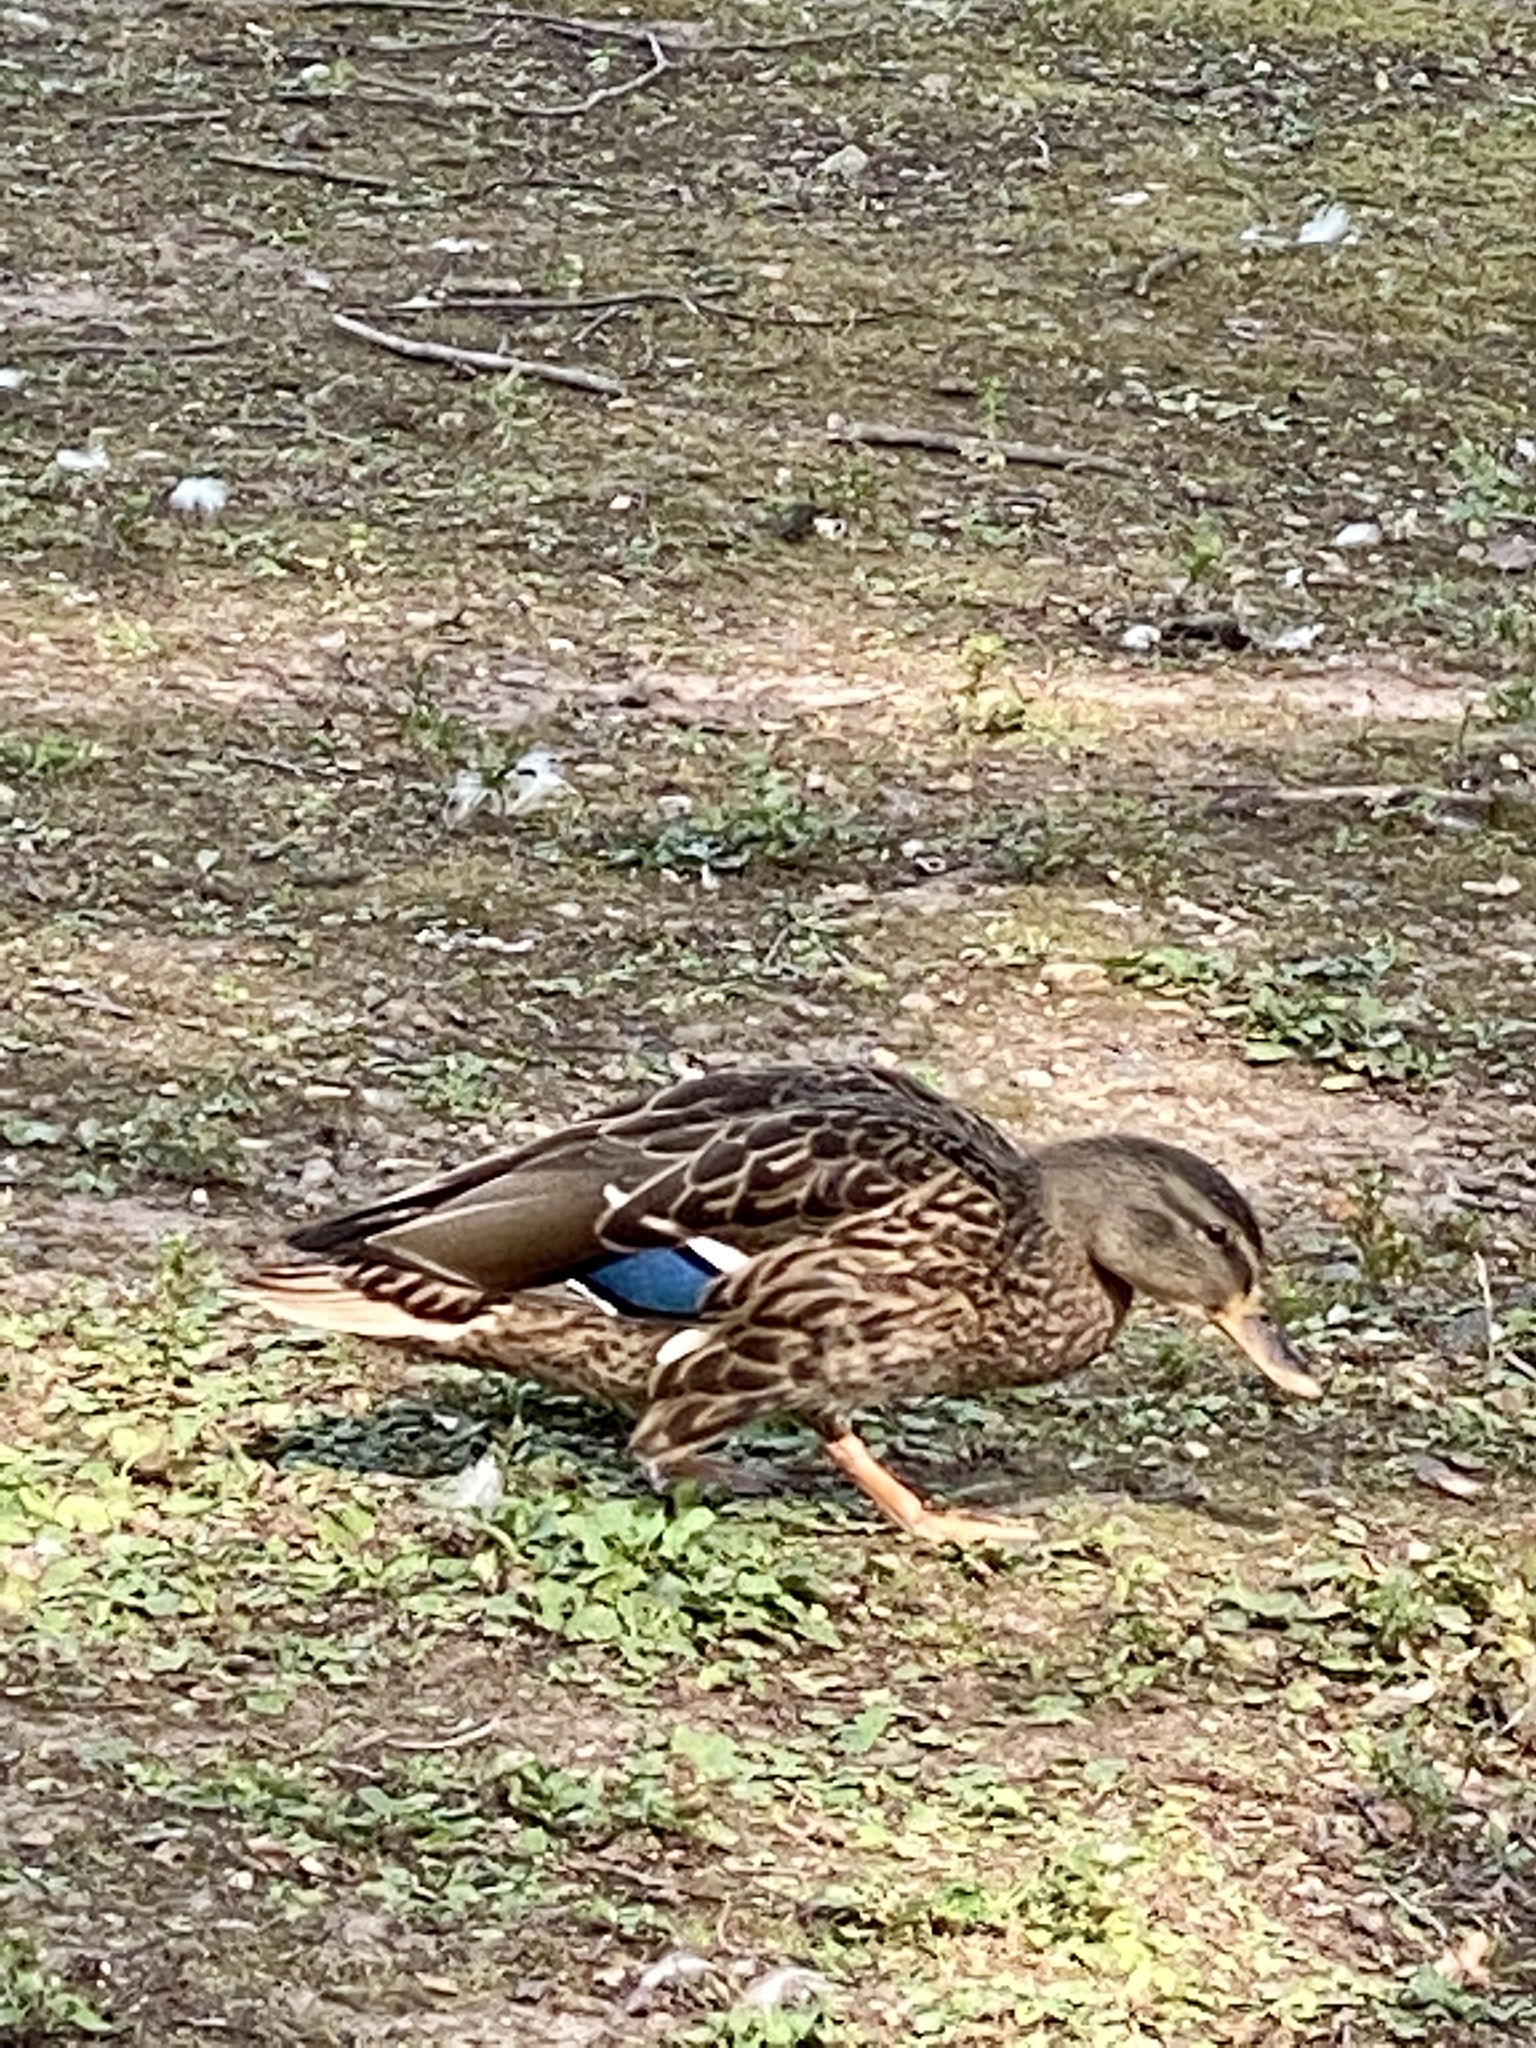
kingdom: Animalia
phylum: Chordata
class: Aves
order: Anseriformes
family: Anatidae
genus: Anas
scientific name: Anas platyrhynchos
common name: Mallard
